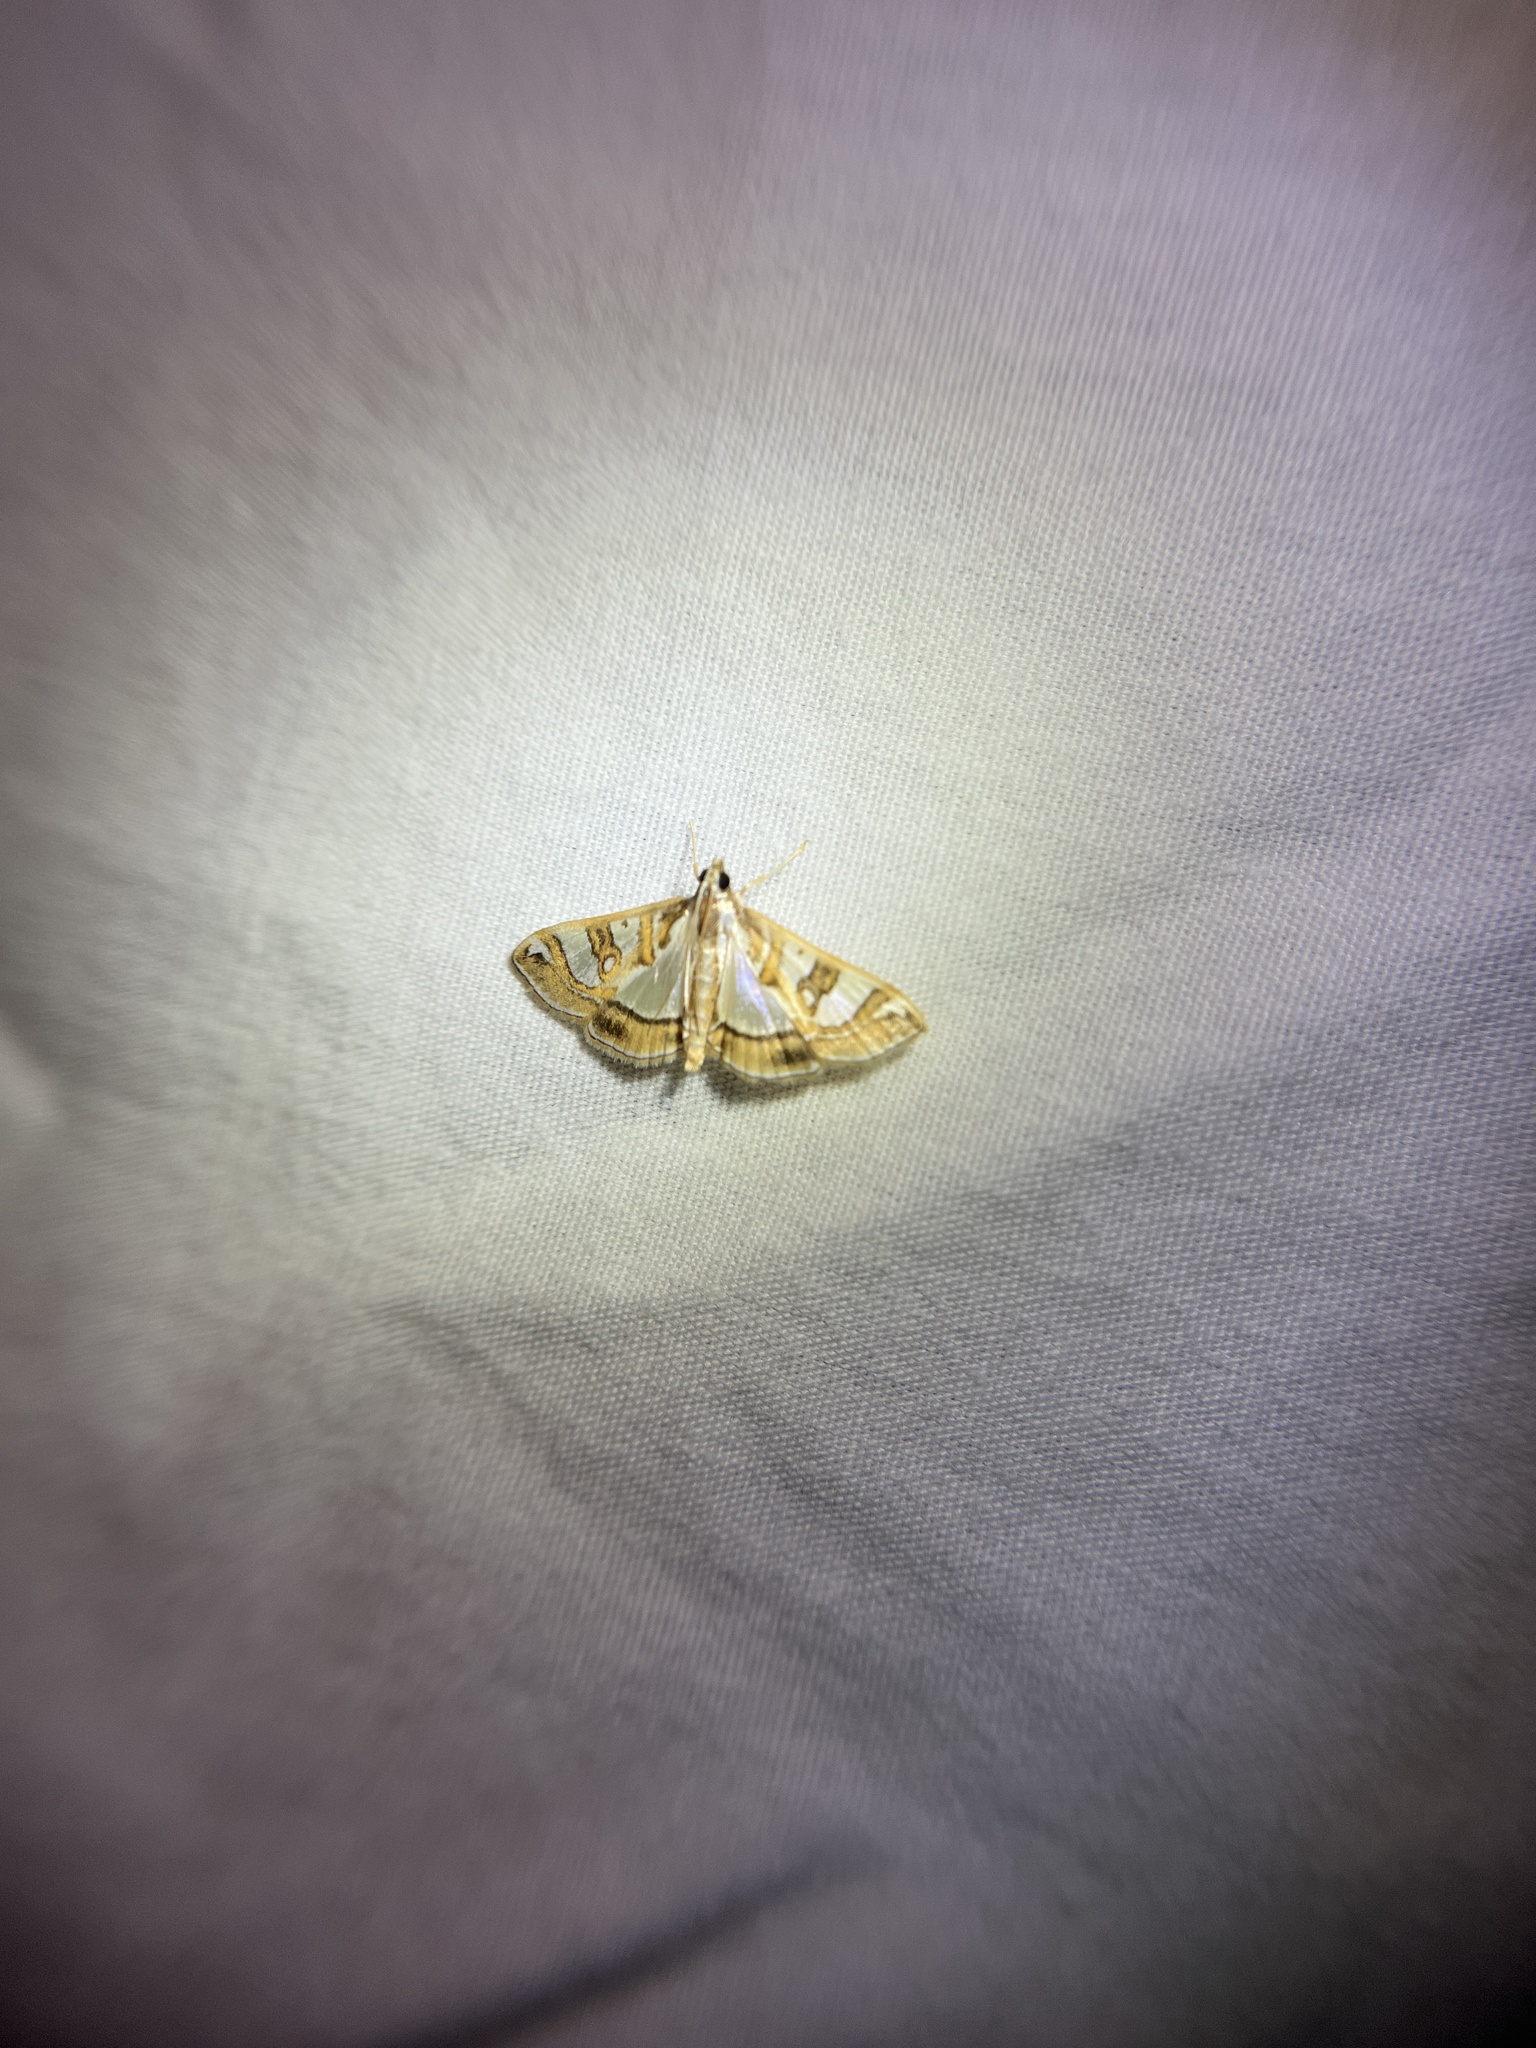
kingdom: Animalia
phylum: Arthropoda
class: Insecta
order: Lepidoptera
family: Crambidae
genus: Glyphodes
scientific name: Glyphodes pyloalis
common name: Lesser mulberry snout moth
